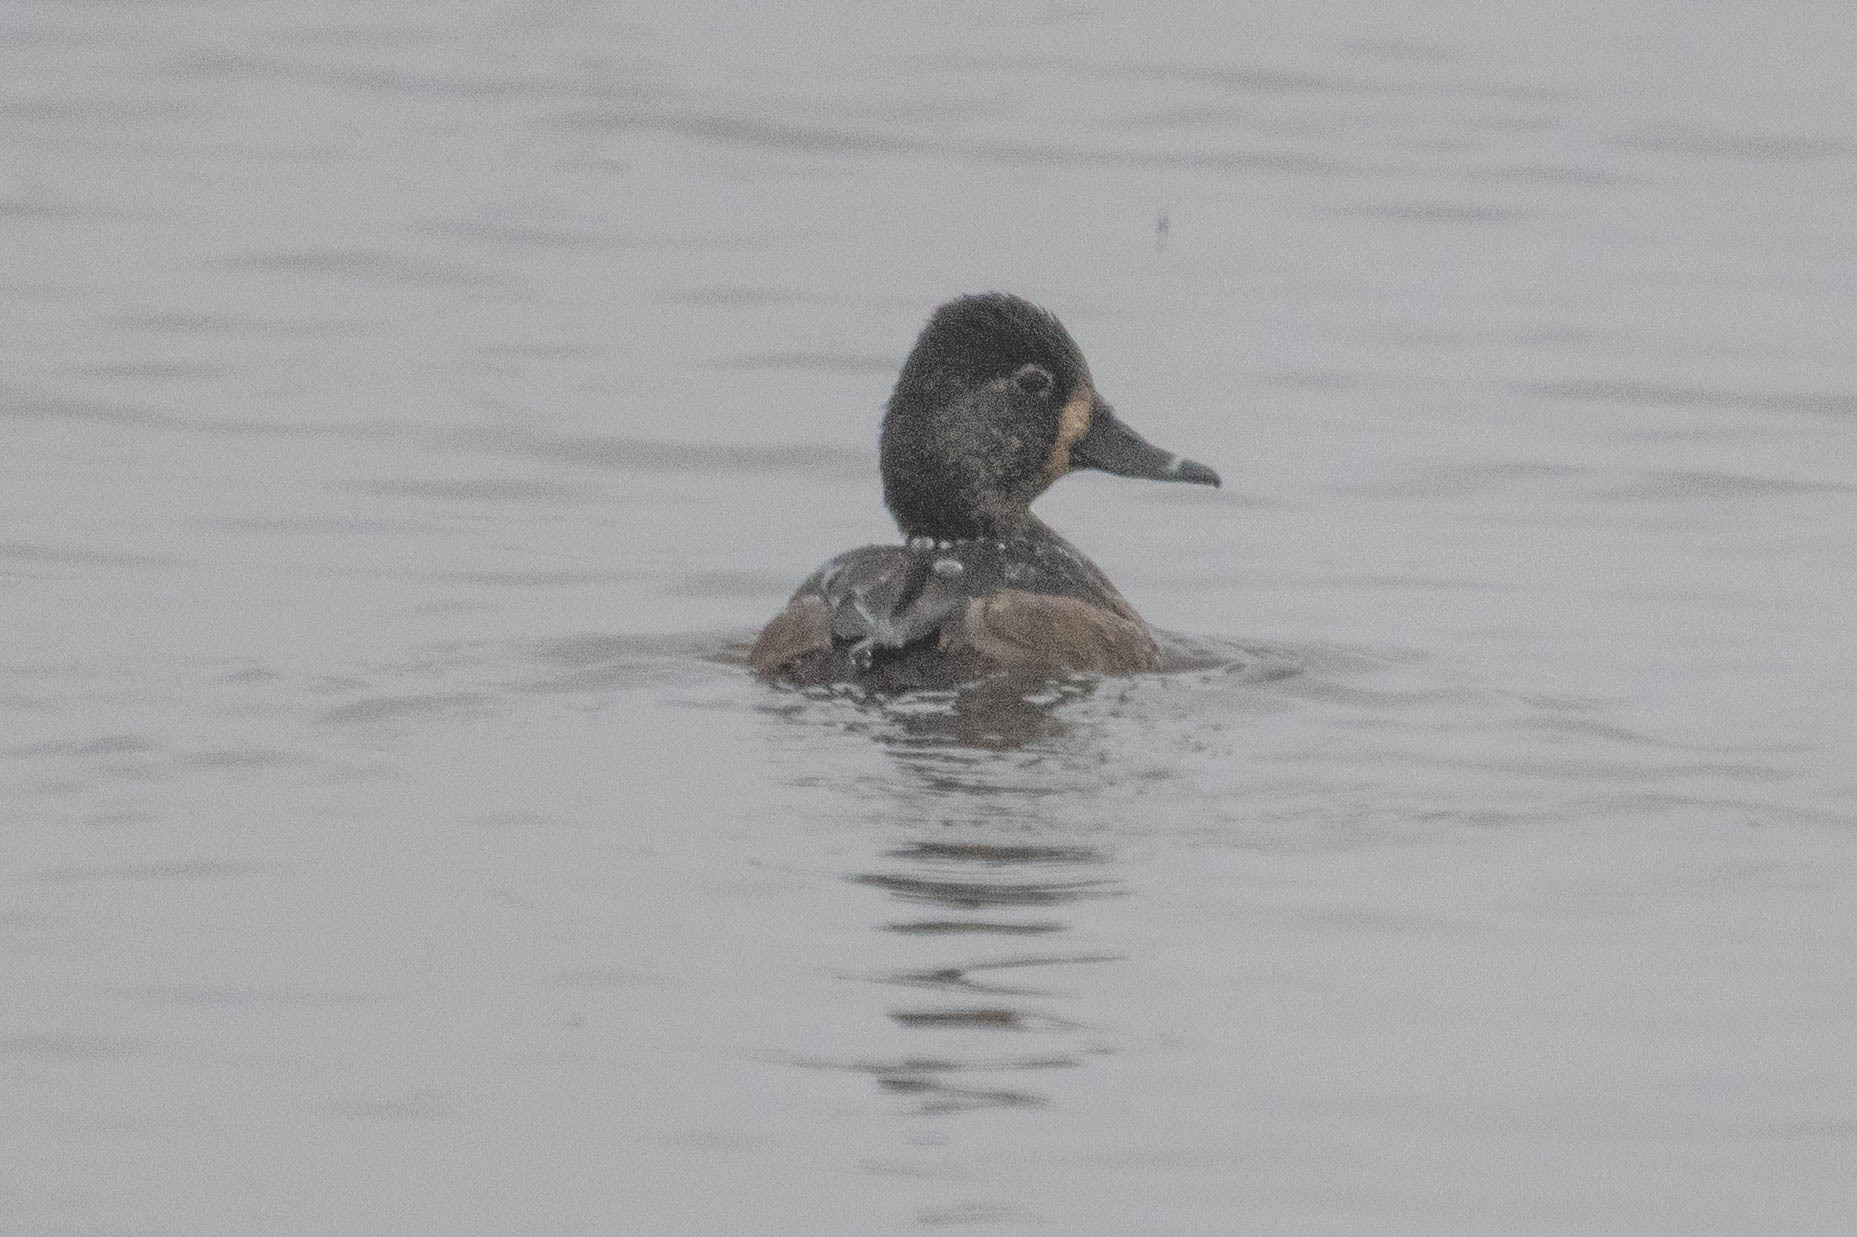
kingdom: Animalia
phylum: Chordata
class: Aves
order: Anseriformes
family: Anatidae
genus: Aythya
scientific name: Aythya collaris
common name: Ring-necked duck
